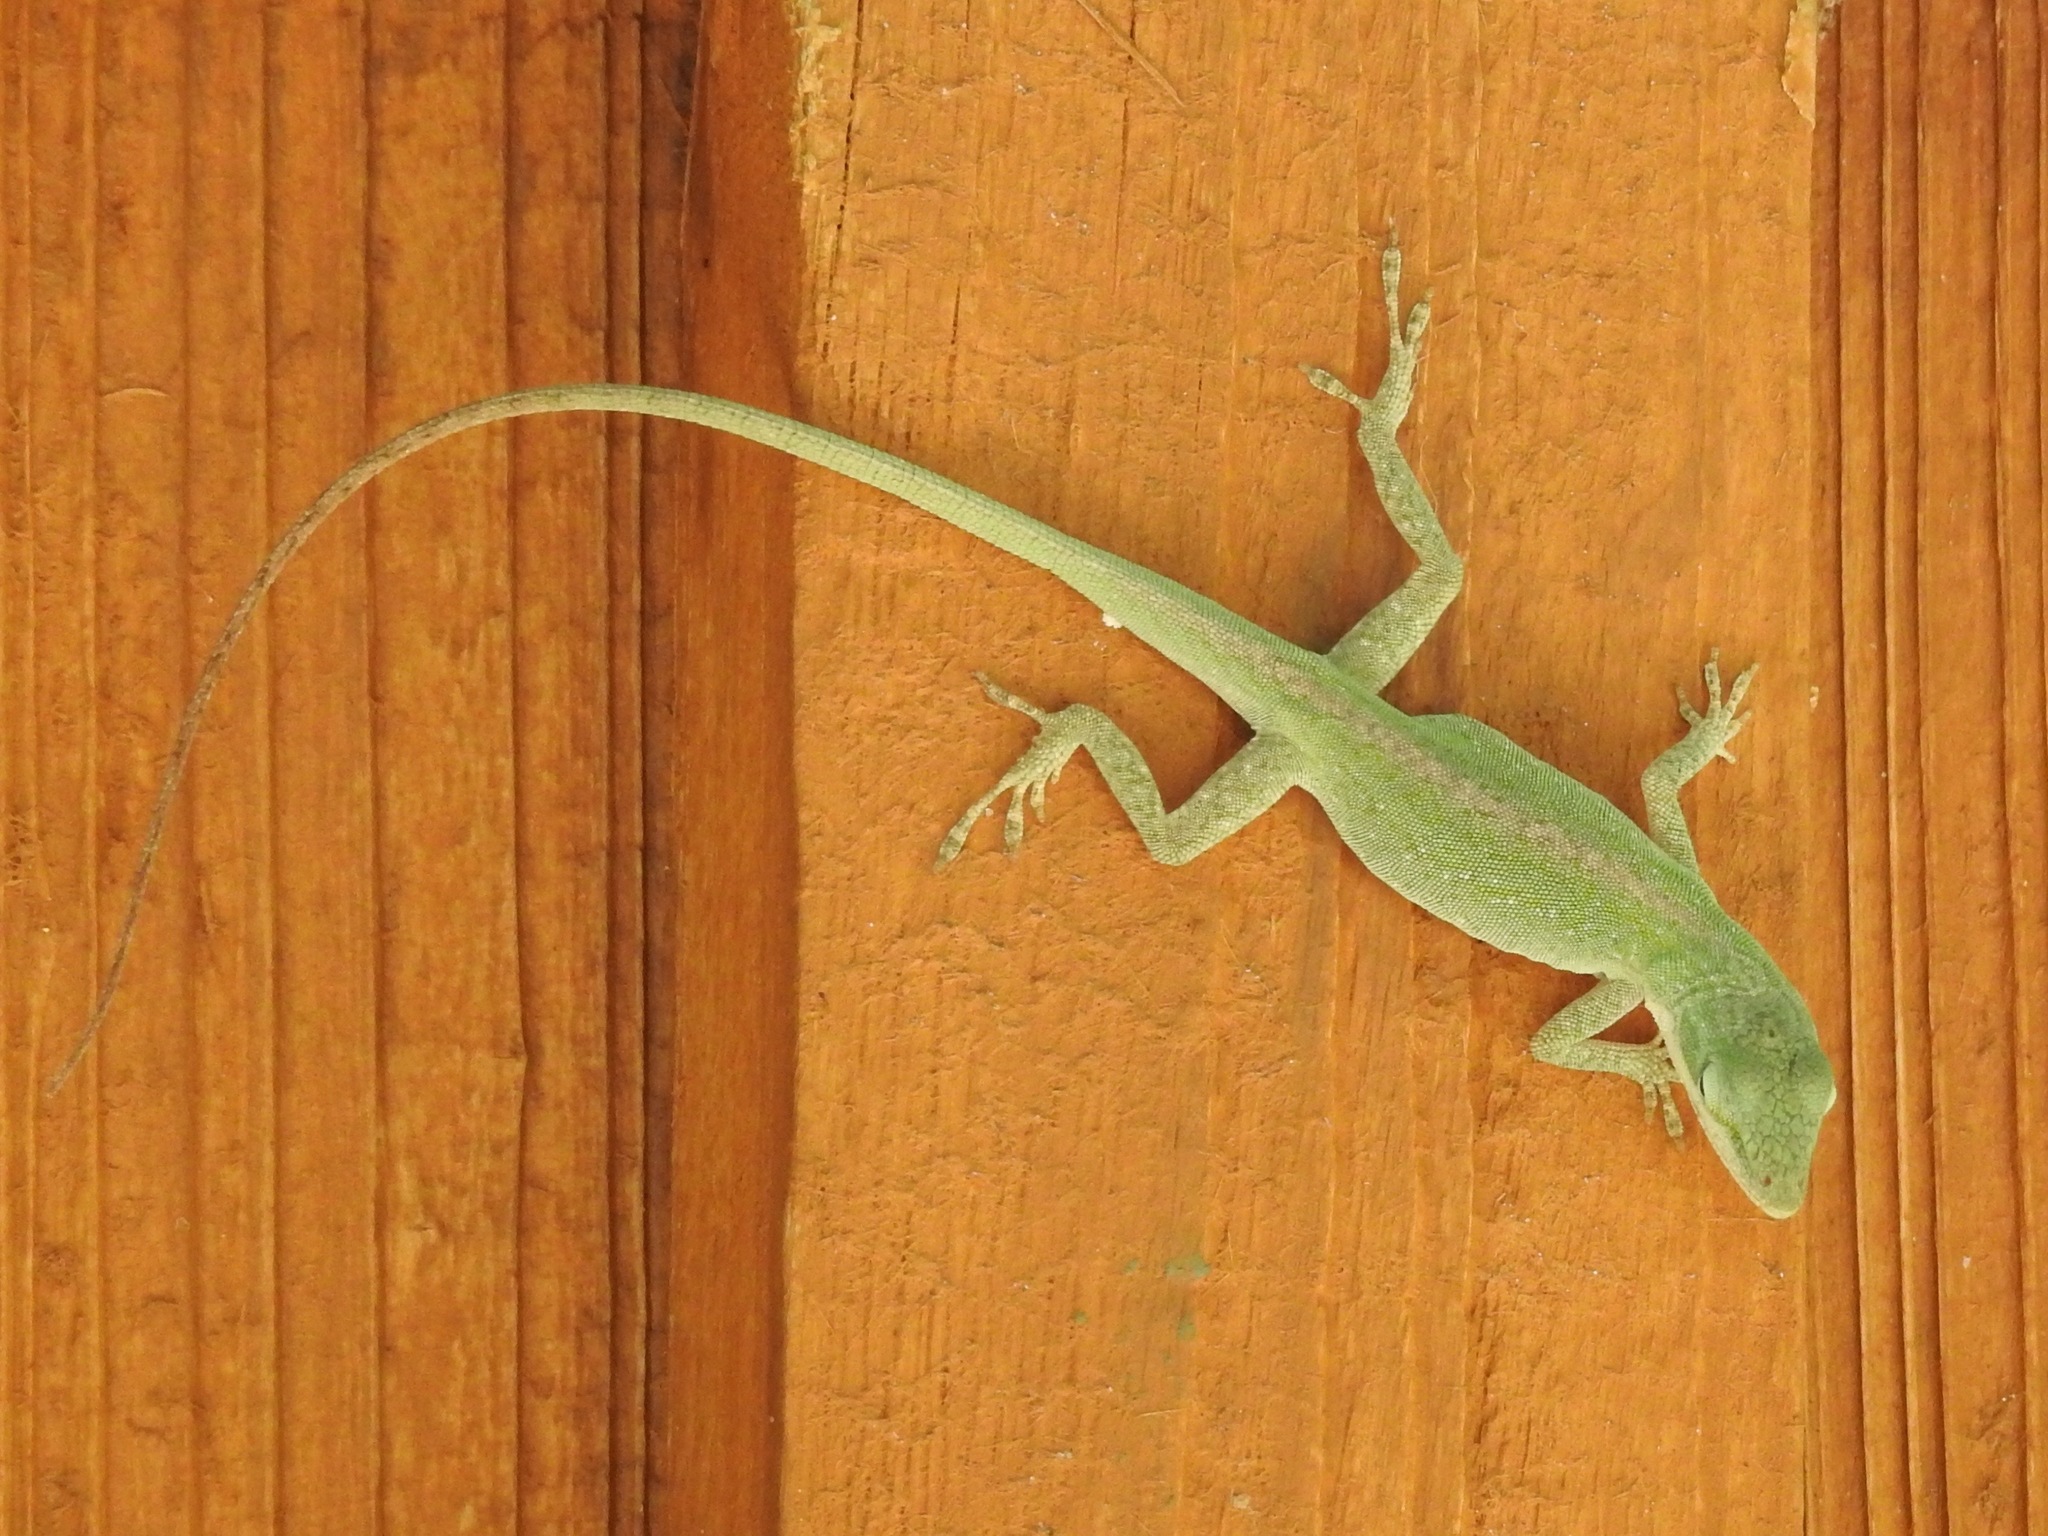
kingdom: Animalia
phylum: Chordata
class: Squamata
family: Dactyloidae
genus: Anolis
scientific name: Anolis carolinensis
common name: Green anole
